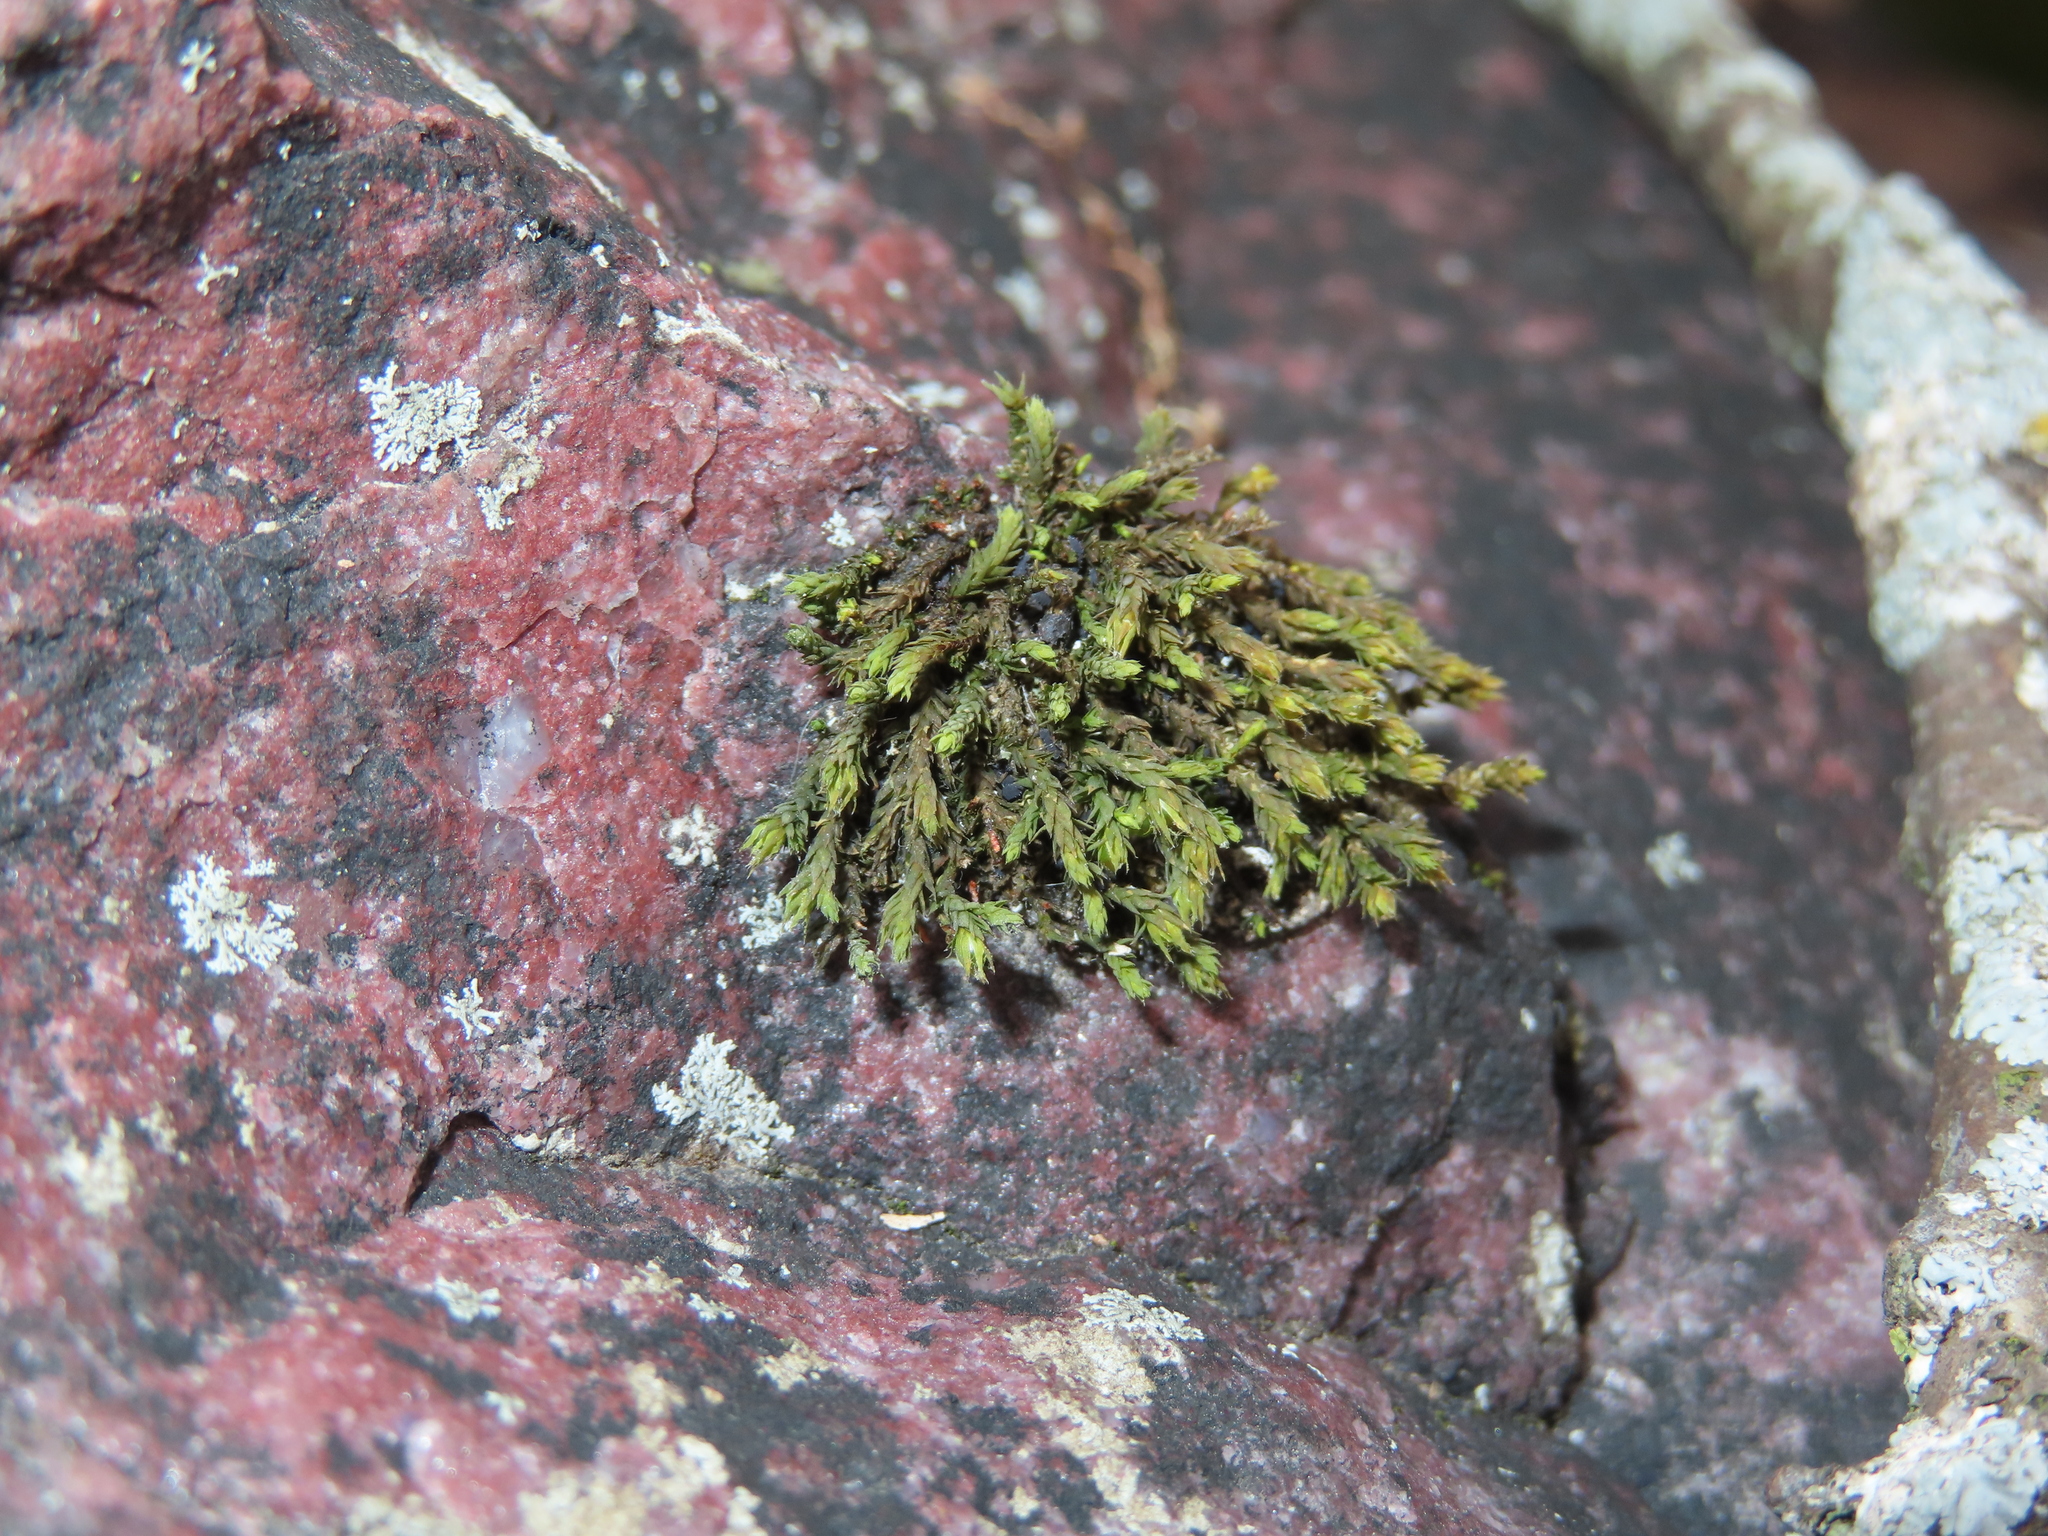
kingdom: Plantae
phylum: Bryophyta
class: Bryopsida
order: Hedwigiales
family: Hedwigiaceae
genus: Hedwigia
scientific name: Hedwigia ciliata
